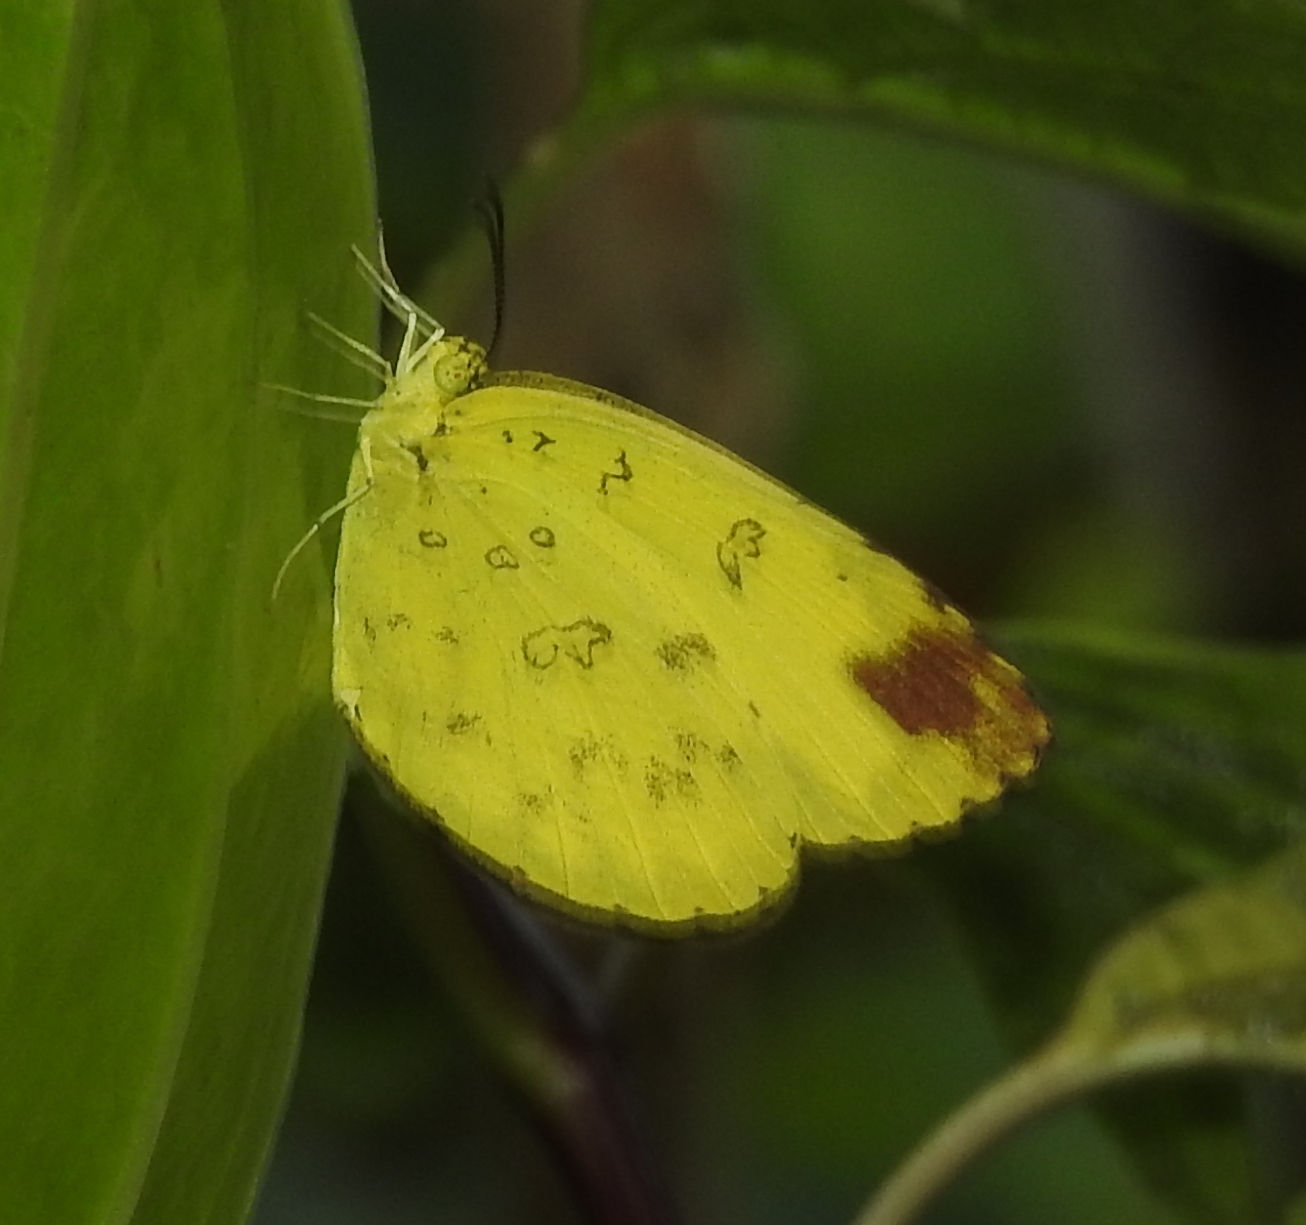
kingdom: Animalia
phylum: Arthropoda
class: Insecta
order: Lepidoptera
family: Pieridae
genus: Eurema
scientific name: Eurema blanda
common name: Three-spot grass yellow
